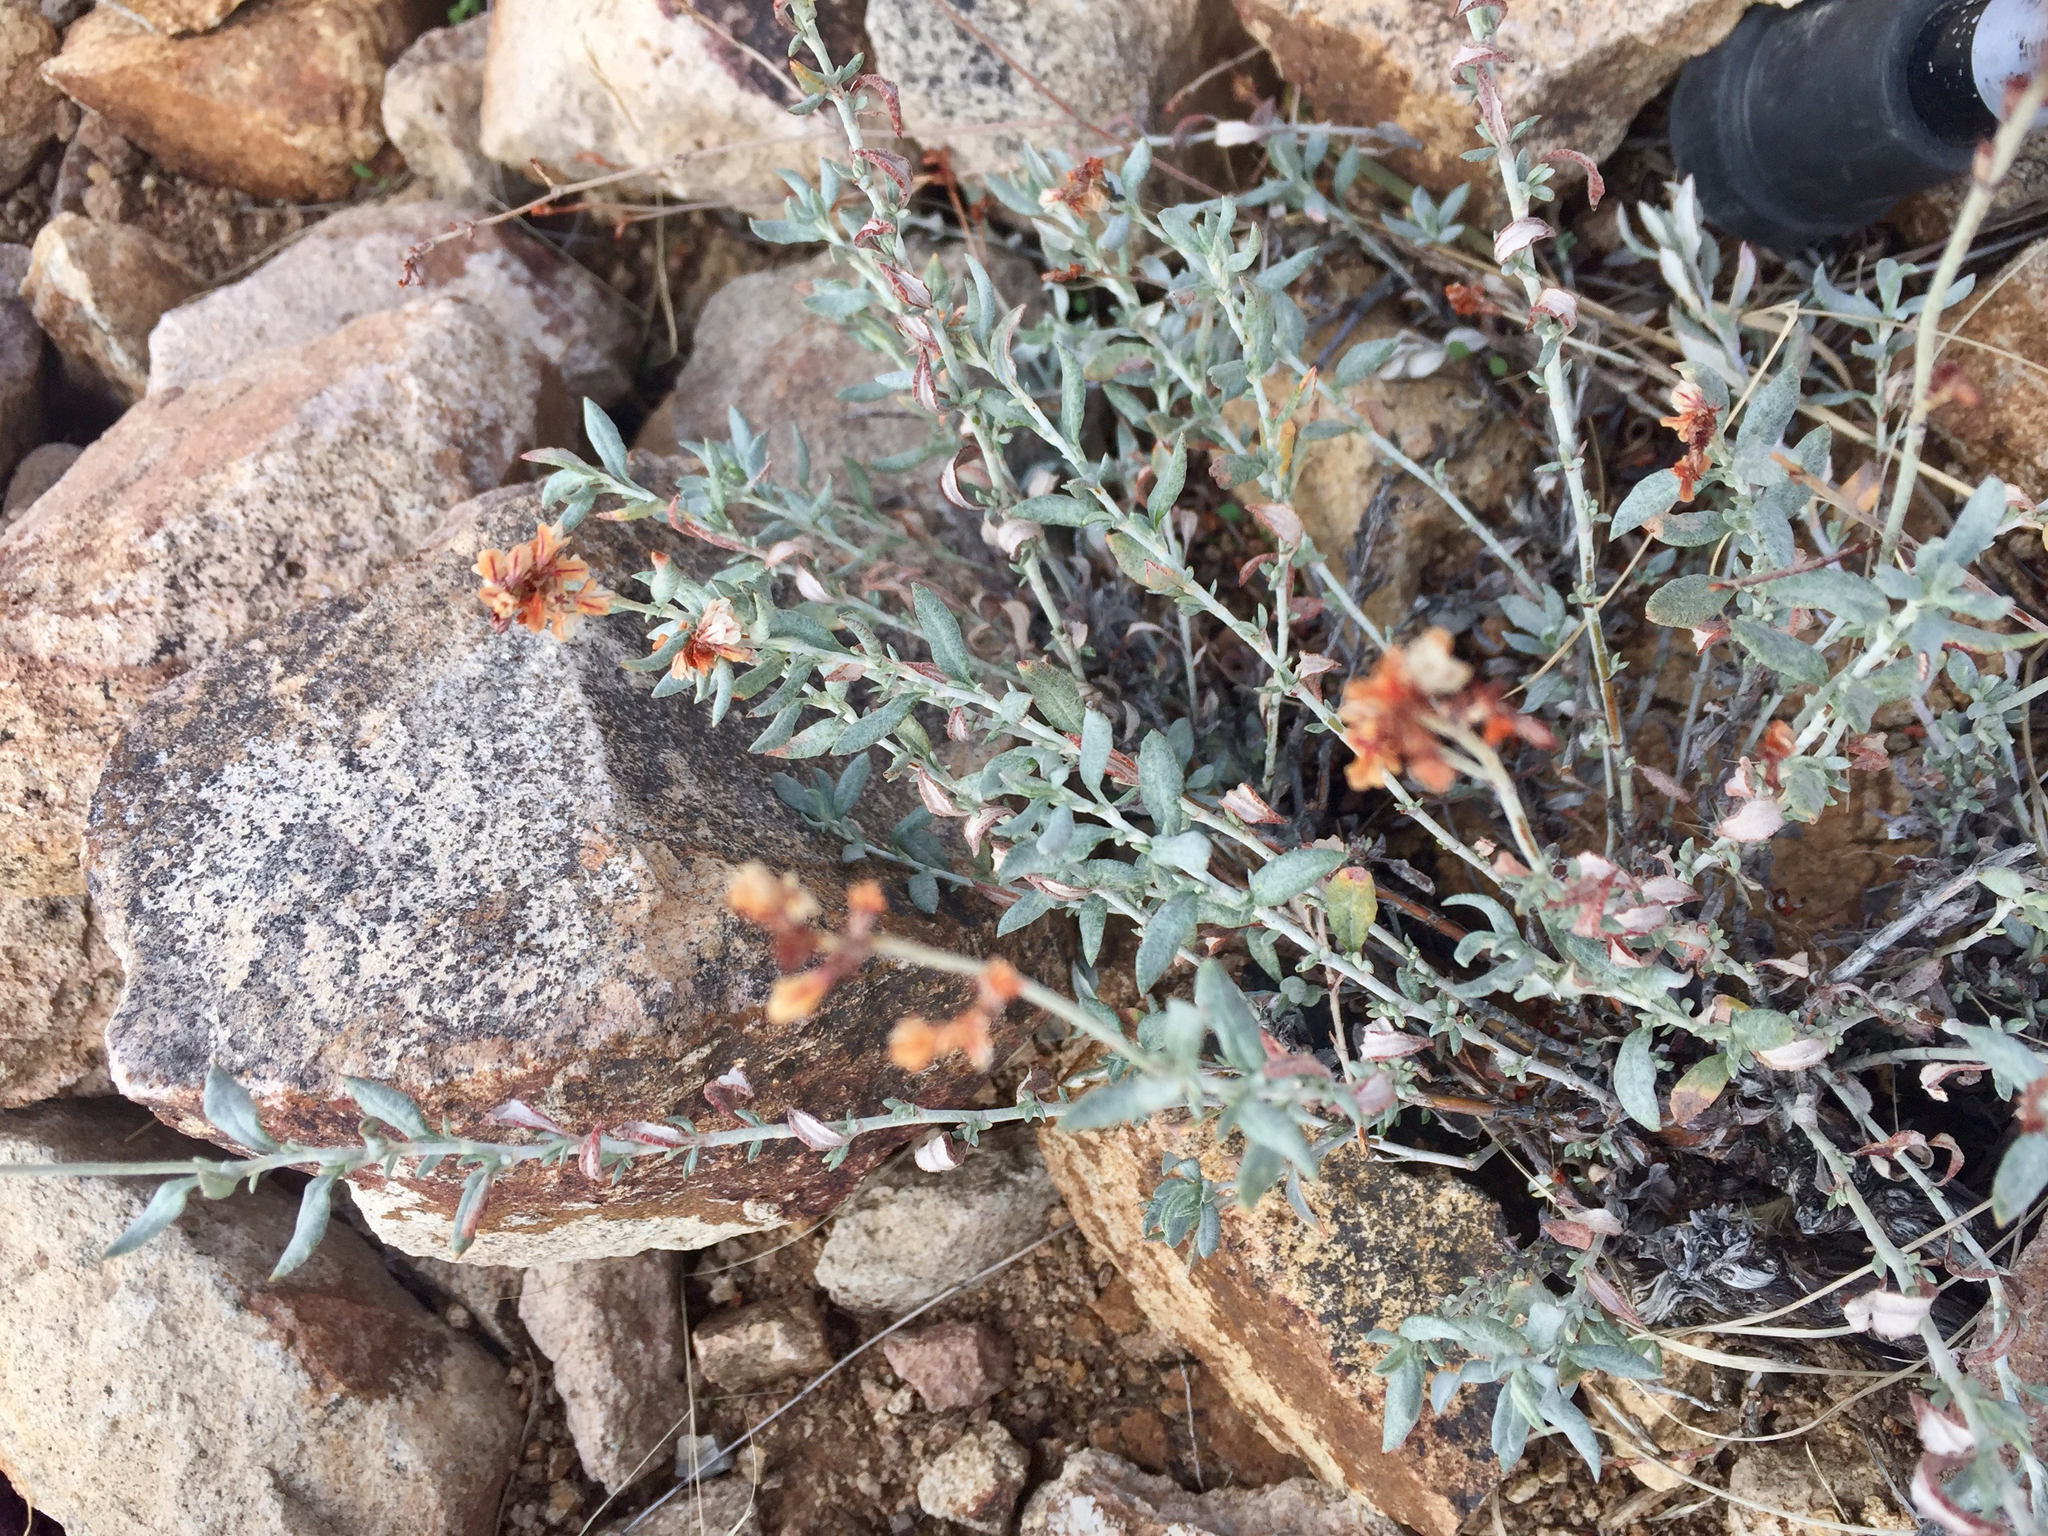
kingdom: Plantae
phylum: Tracheophyta
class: Magnoliopsida
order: Caryophyllales
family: Polygonaceae
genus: Eriogonum
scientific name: Eriogonum wrightii
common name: Bastard-sage
